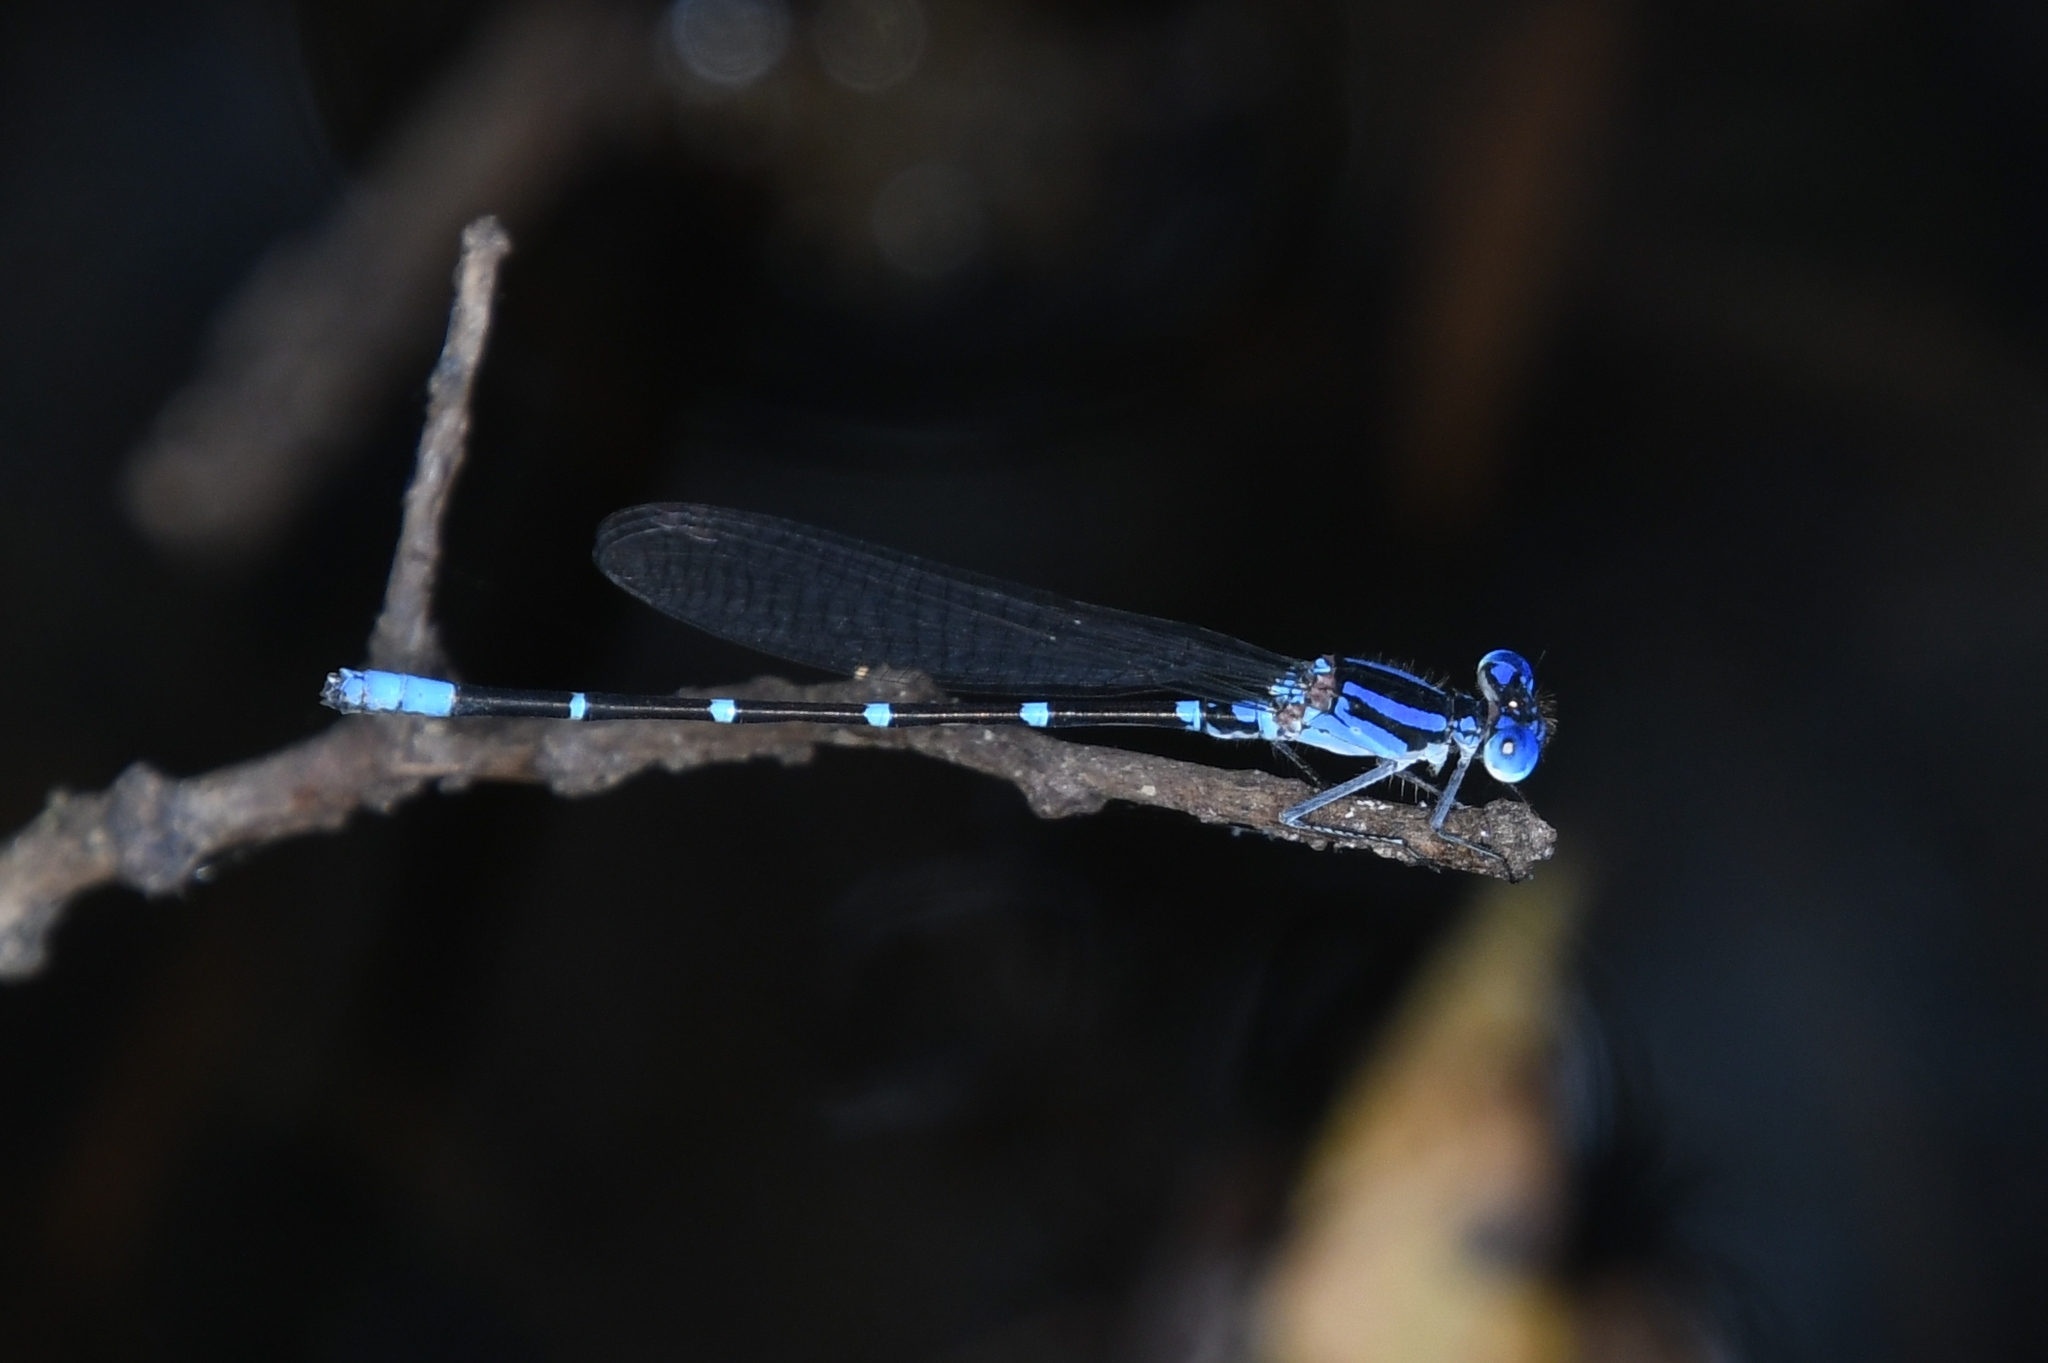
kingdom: Animalia
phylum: Arthropoda
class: Insecta
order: Odonata
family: Coenagrionidae
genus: Argia
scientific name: Argia sedula
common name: Blue-ringed dancer
